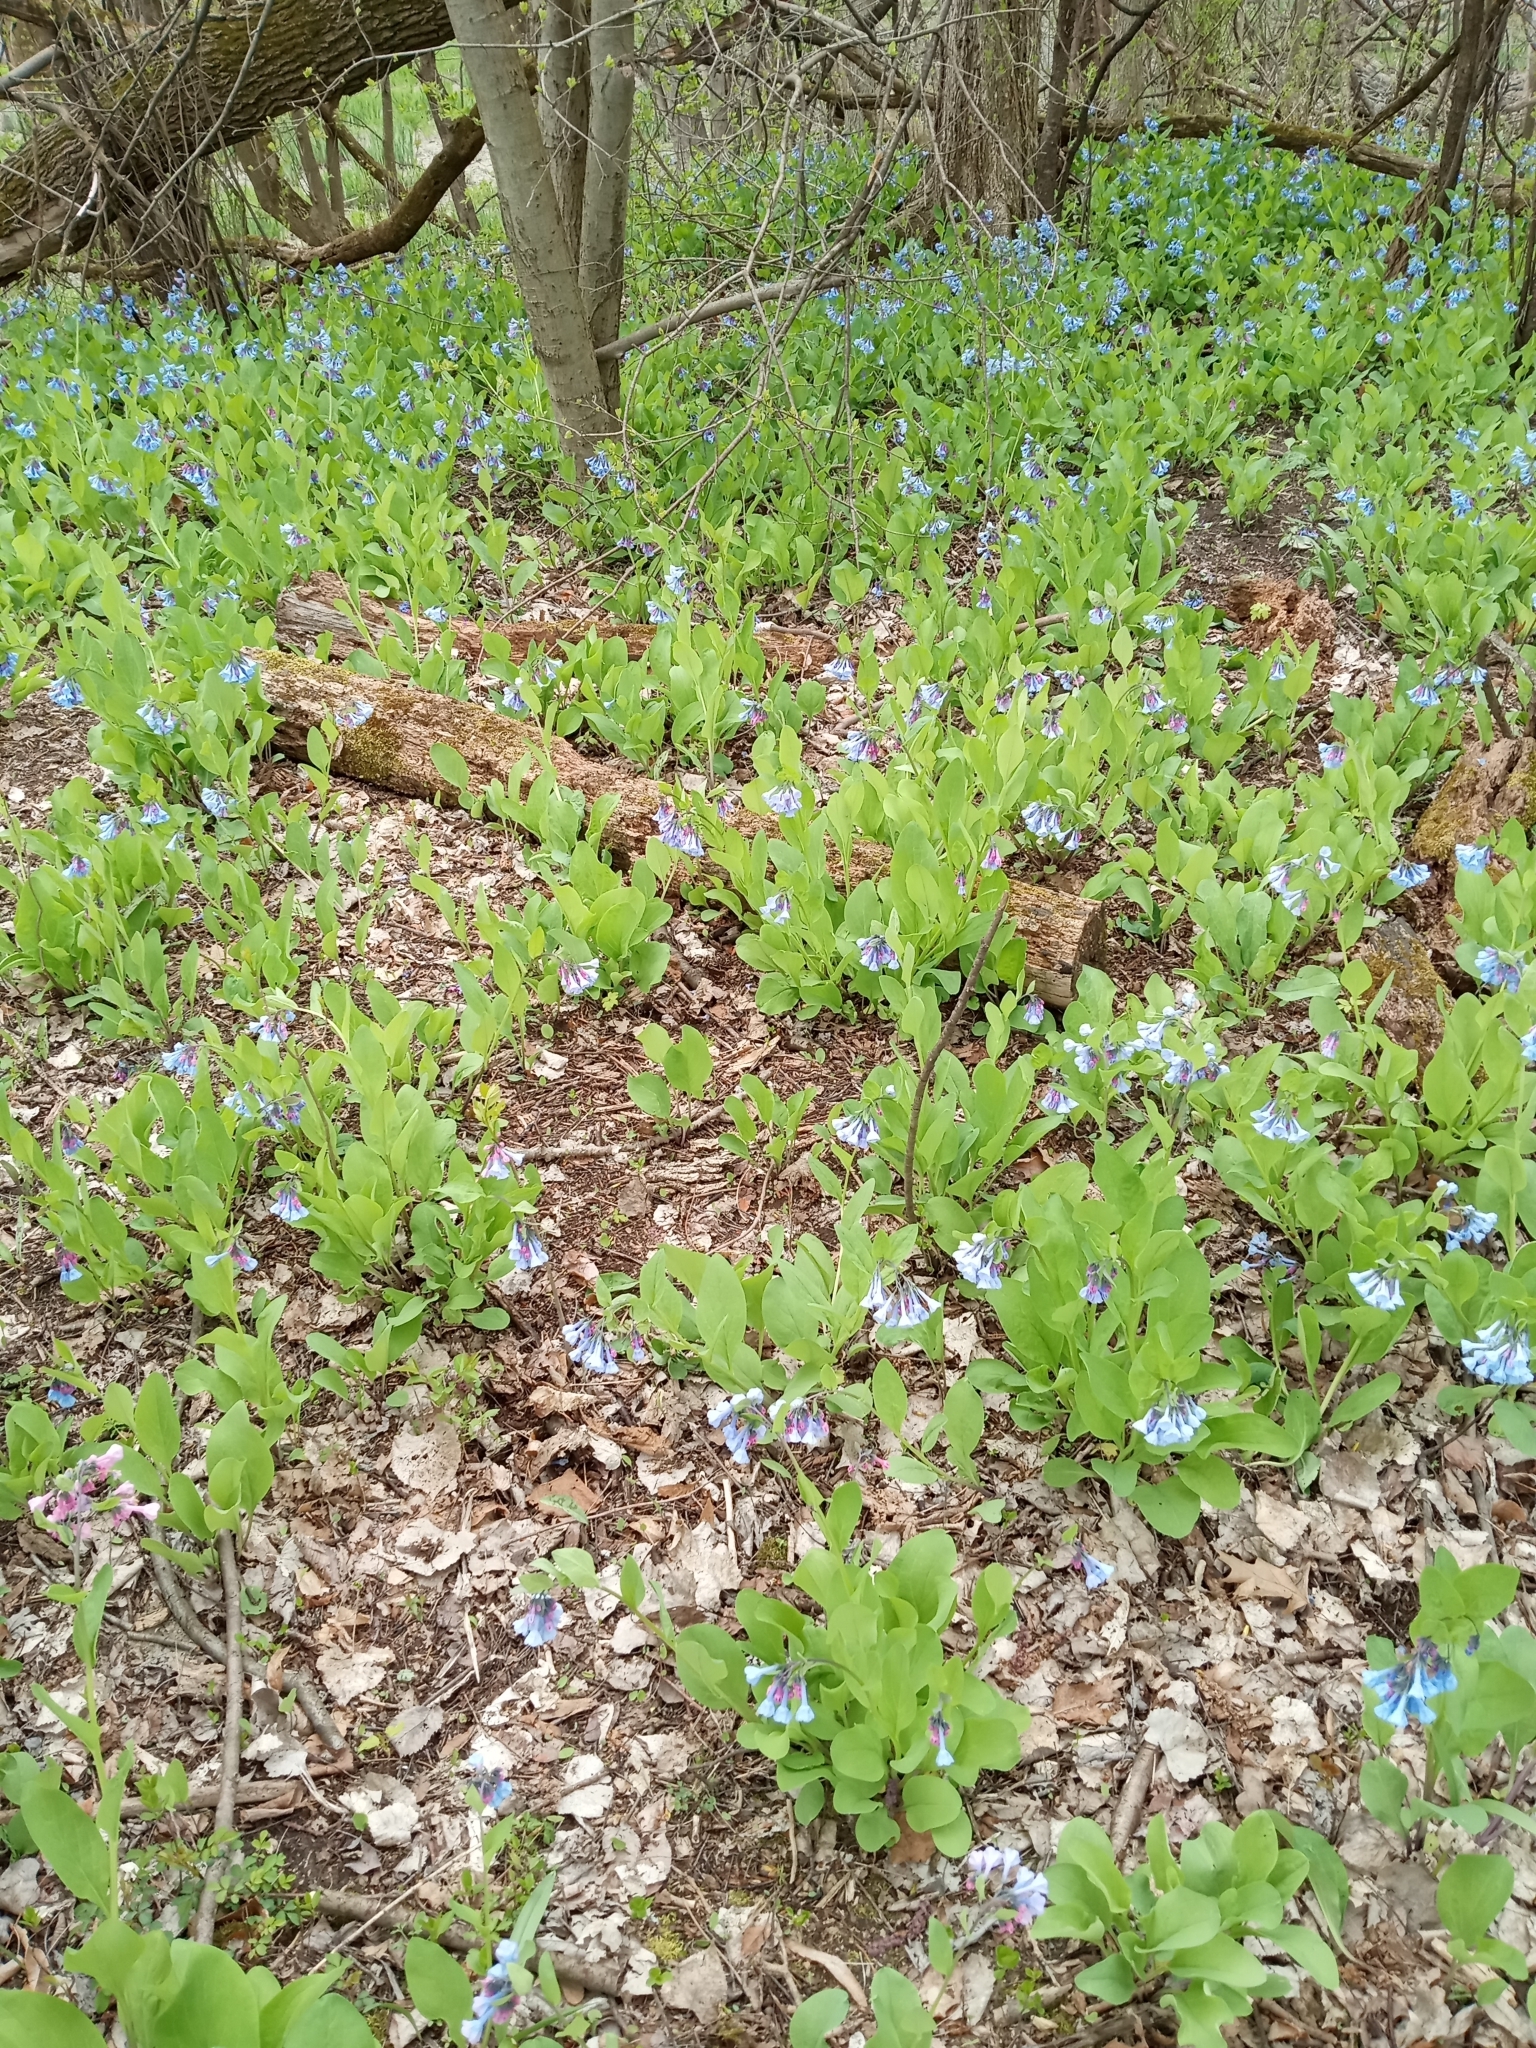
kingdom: Plantae
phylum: Tracheophyta
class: Magnoliopsida
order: Boraginales
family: Boraginaceae
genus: Mertensia
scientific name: Mertensia virginica
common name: Virginia bluebells
